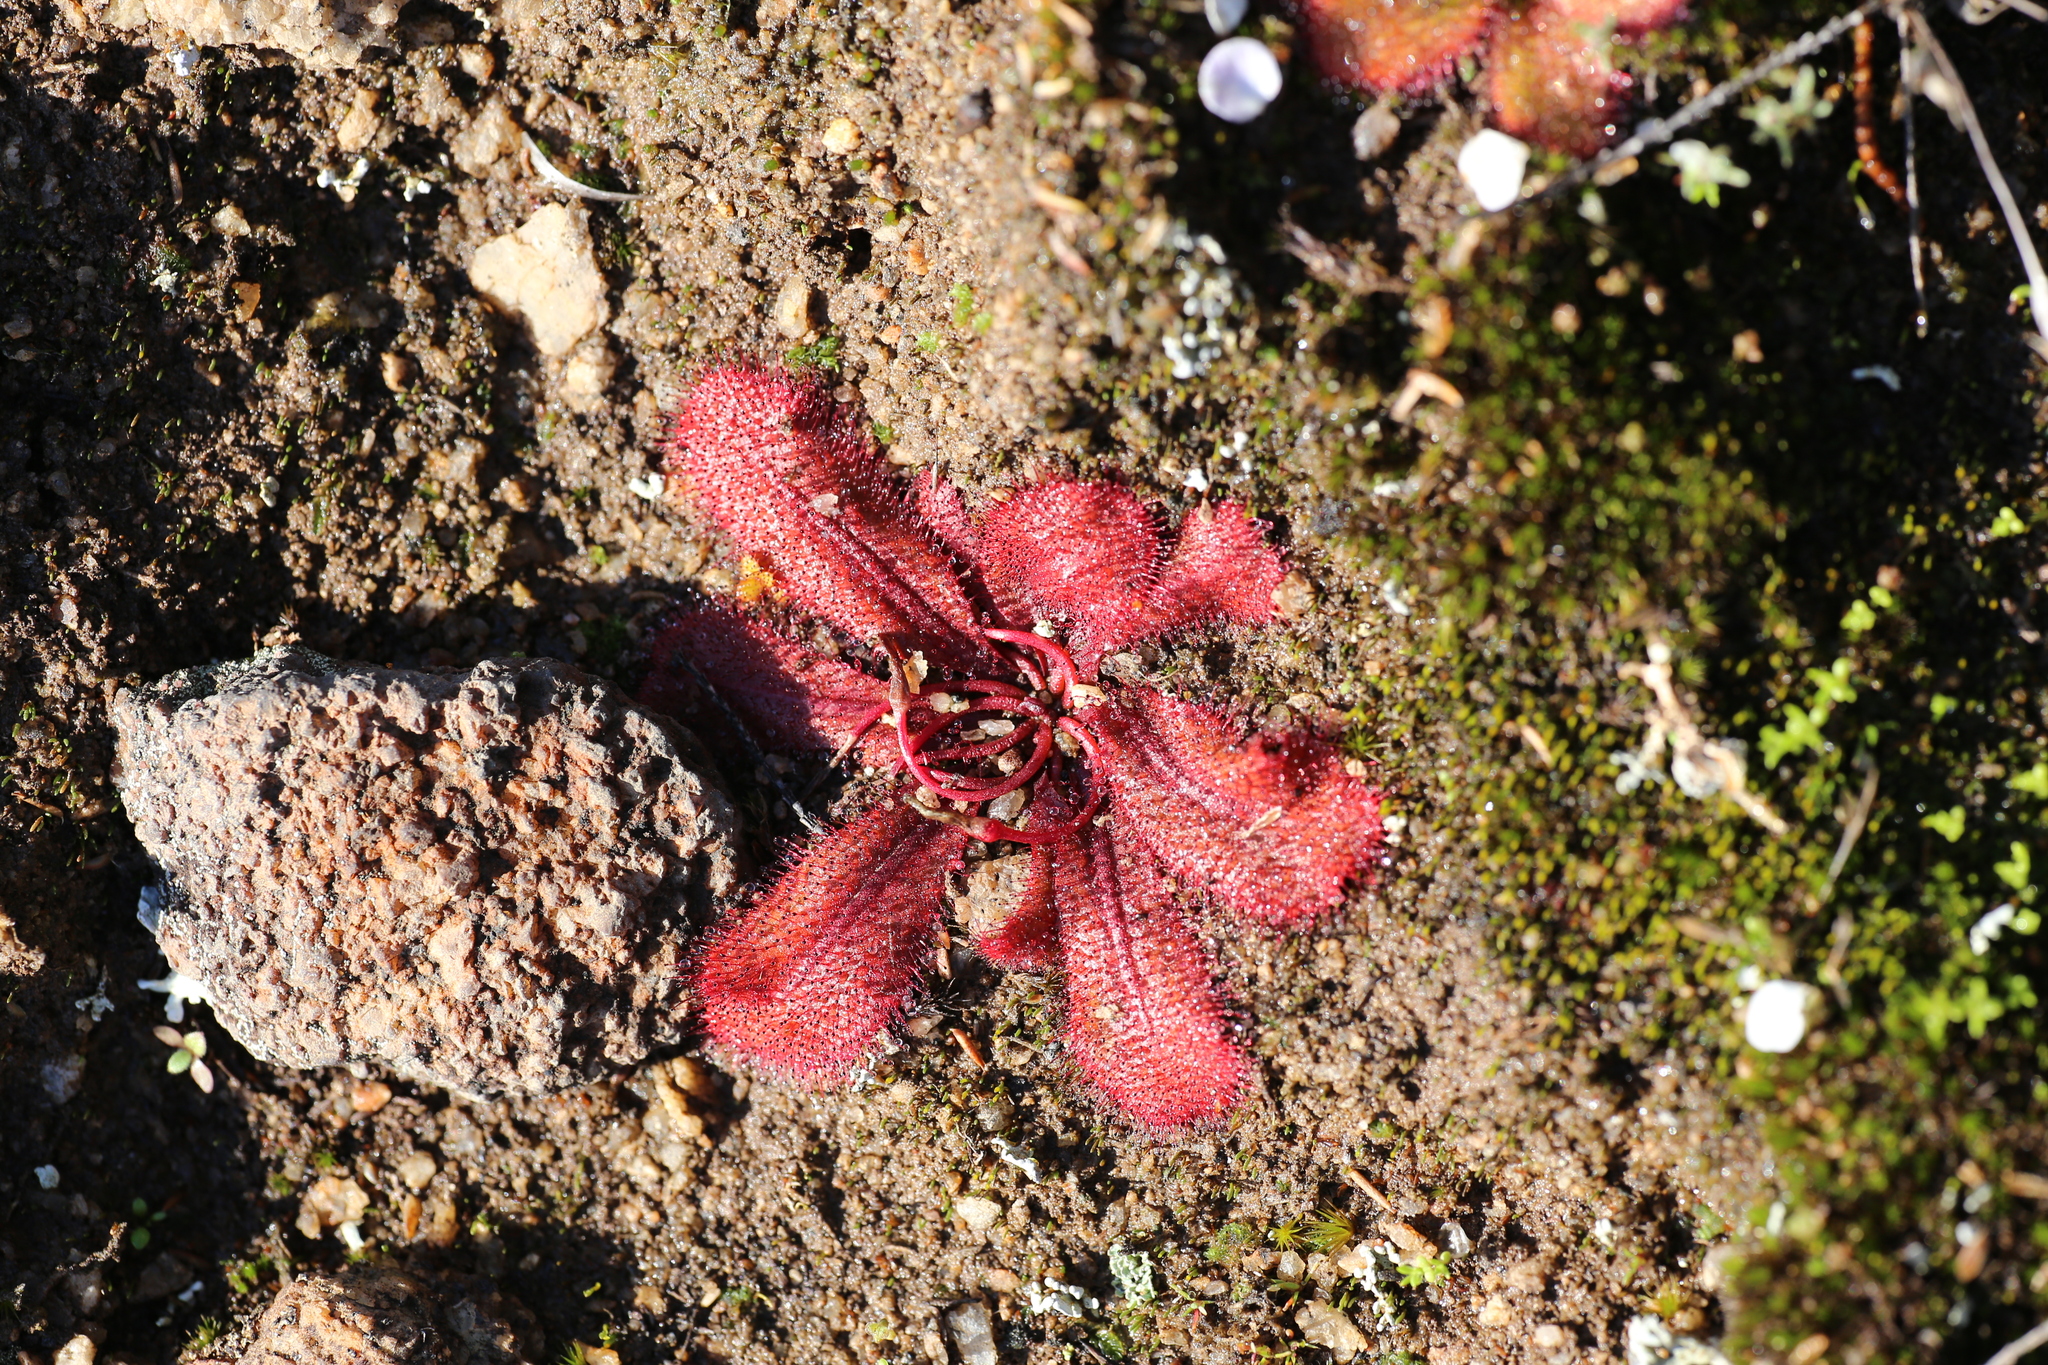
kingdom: Plantae
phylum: Tracheophyta
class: Magnoliopsida
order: Caryophyllales
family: Droseraceae
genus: Drosera
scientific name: Drosera bulbosa
